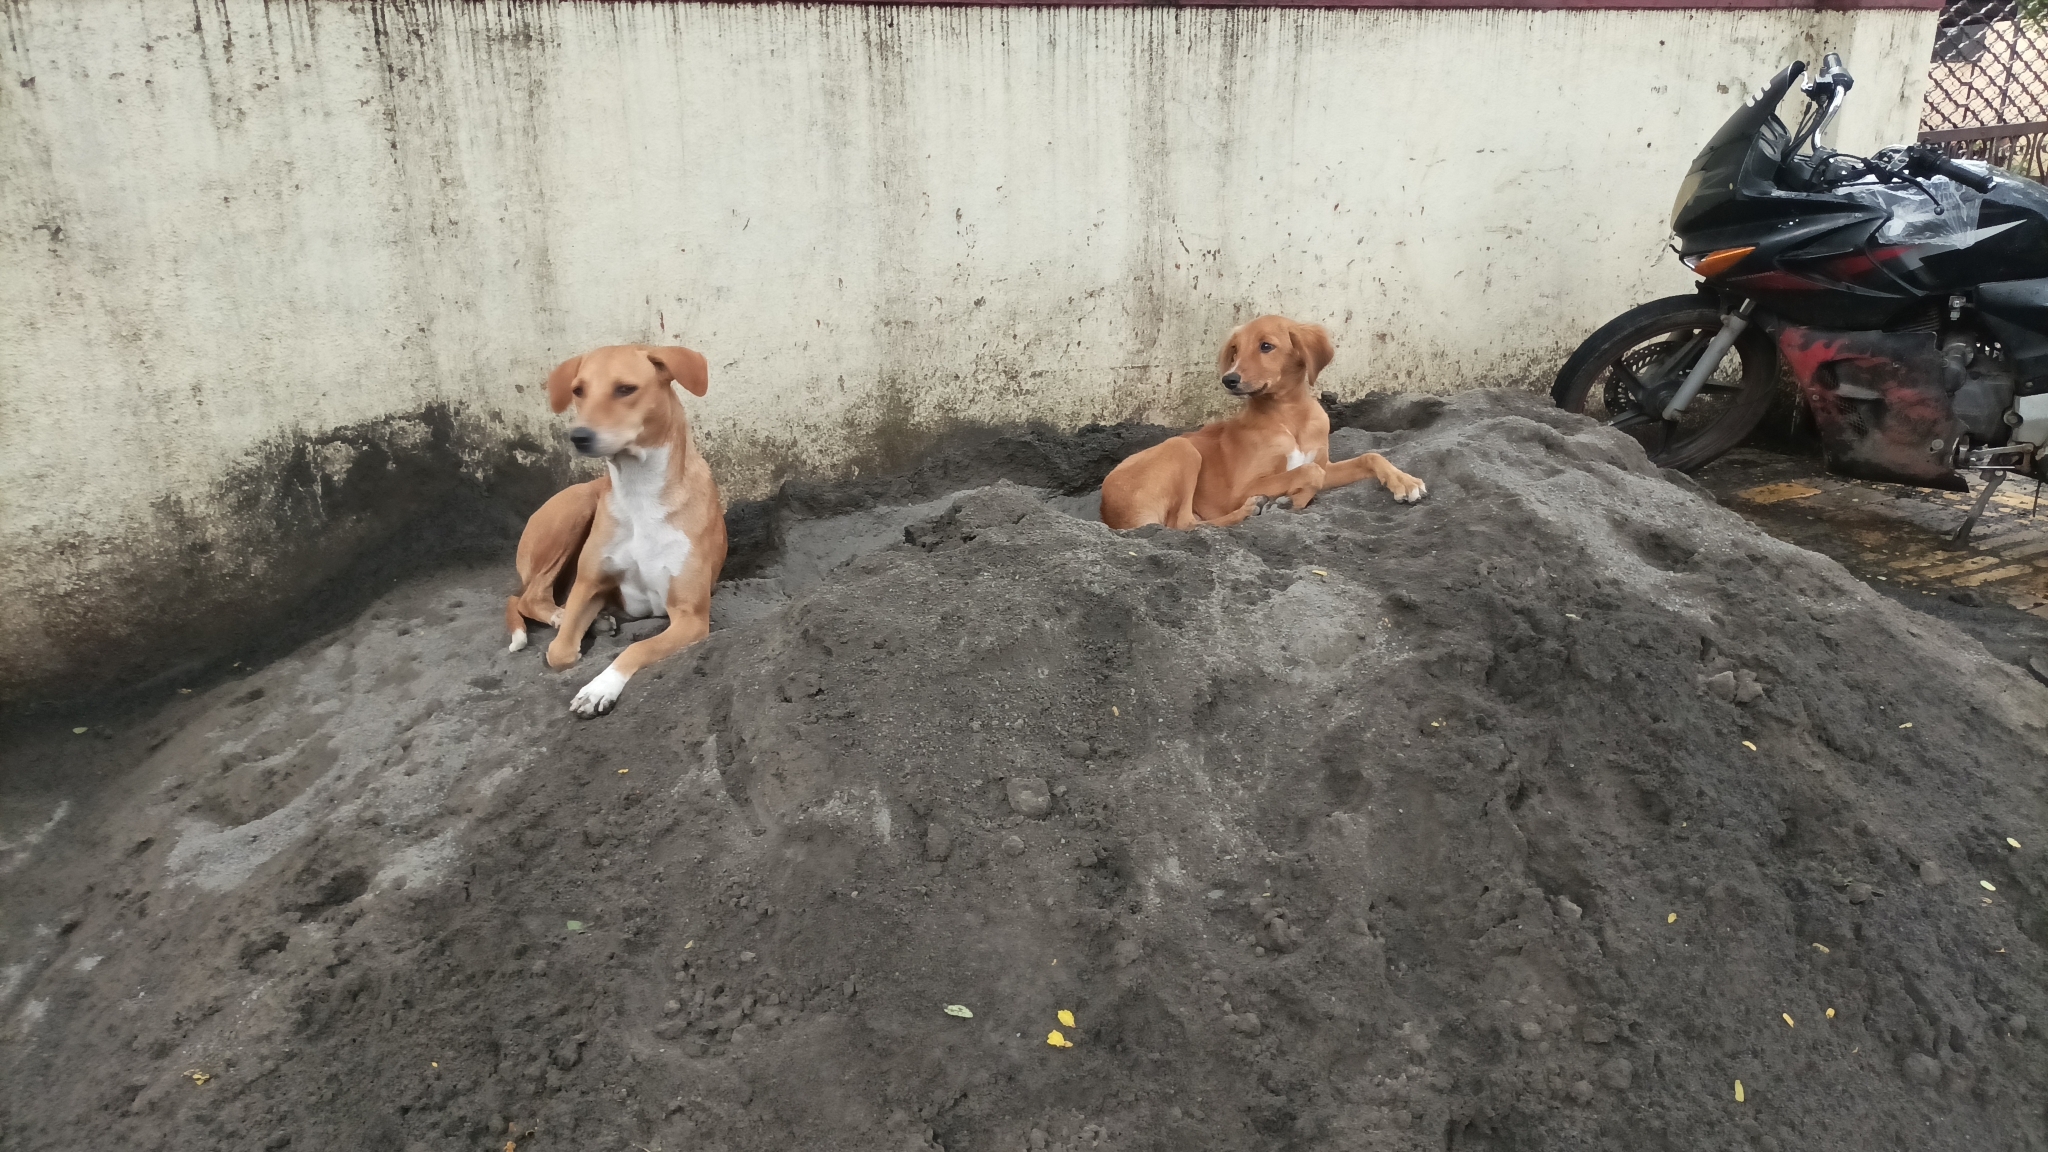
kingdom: Animalia
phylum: Chordata
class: Mammalia
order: Carnivora
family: Canidae
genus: Canis
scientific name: Canis lupus
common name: Gray wolf
